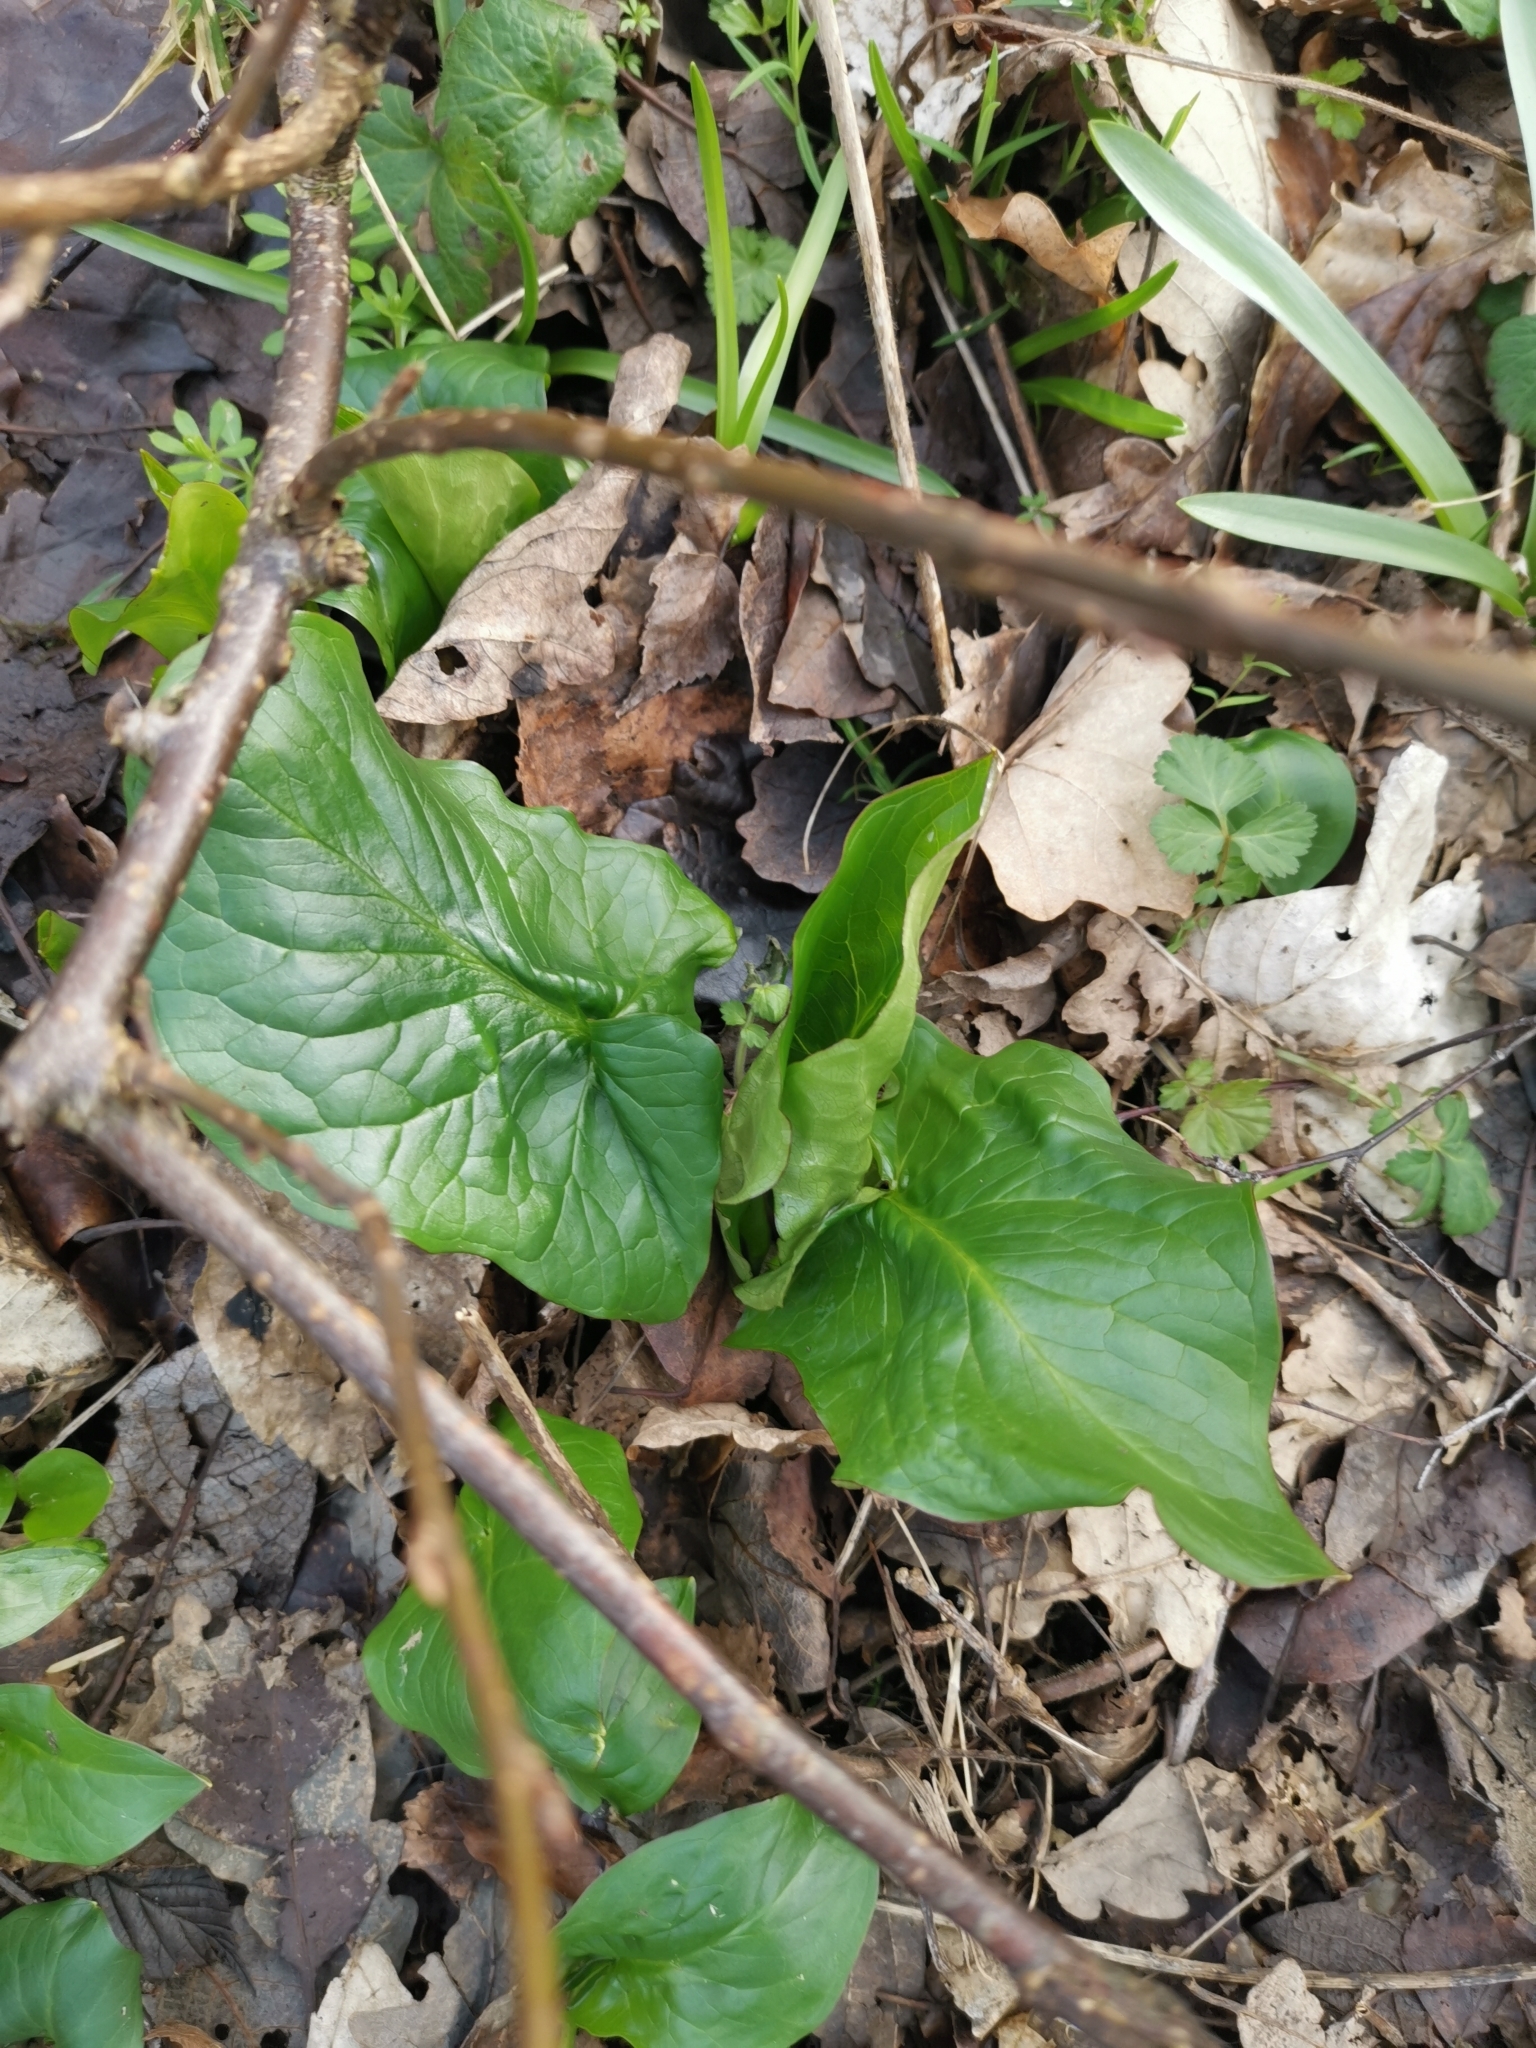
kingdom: Plantae
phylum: Tracheophyta
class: Liliopsida
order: Alismatales
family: Araceae
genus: Arum
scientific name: Arum maculatum
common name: Lords-and-ladies
